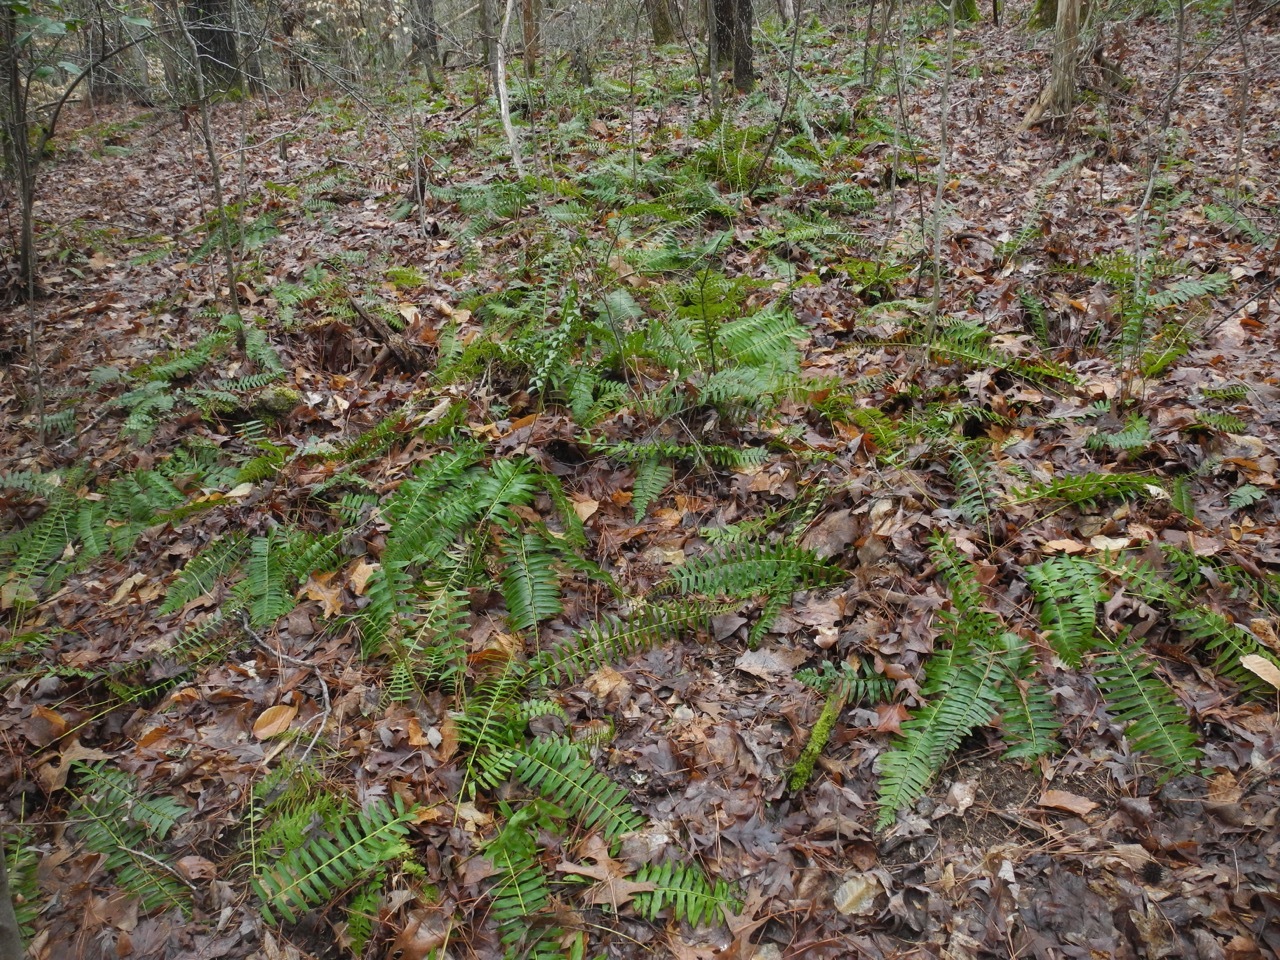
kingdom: Plantae
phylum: Tracheophyta
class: Polypodiopsida
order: Polypodiales
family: Dryopteridaceae
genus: Polystichum
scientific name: Polystichum acrostichoides
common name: Christmas fern
